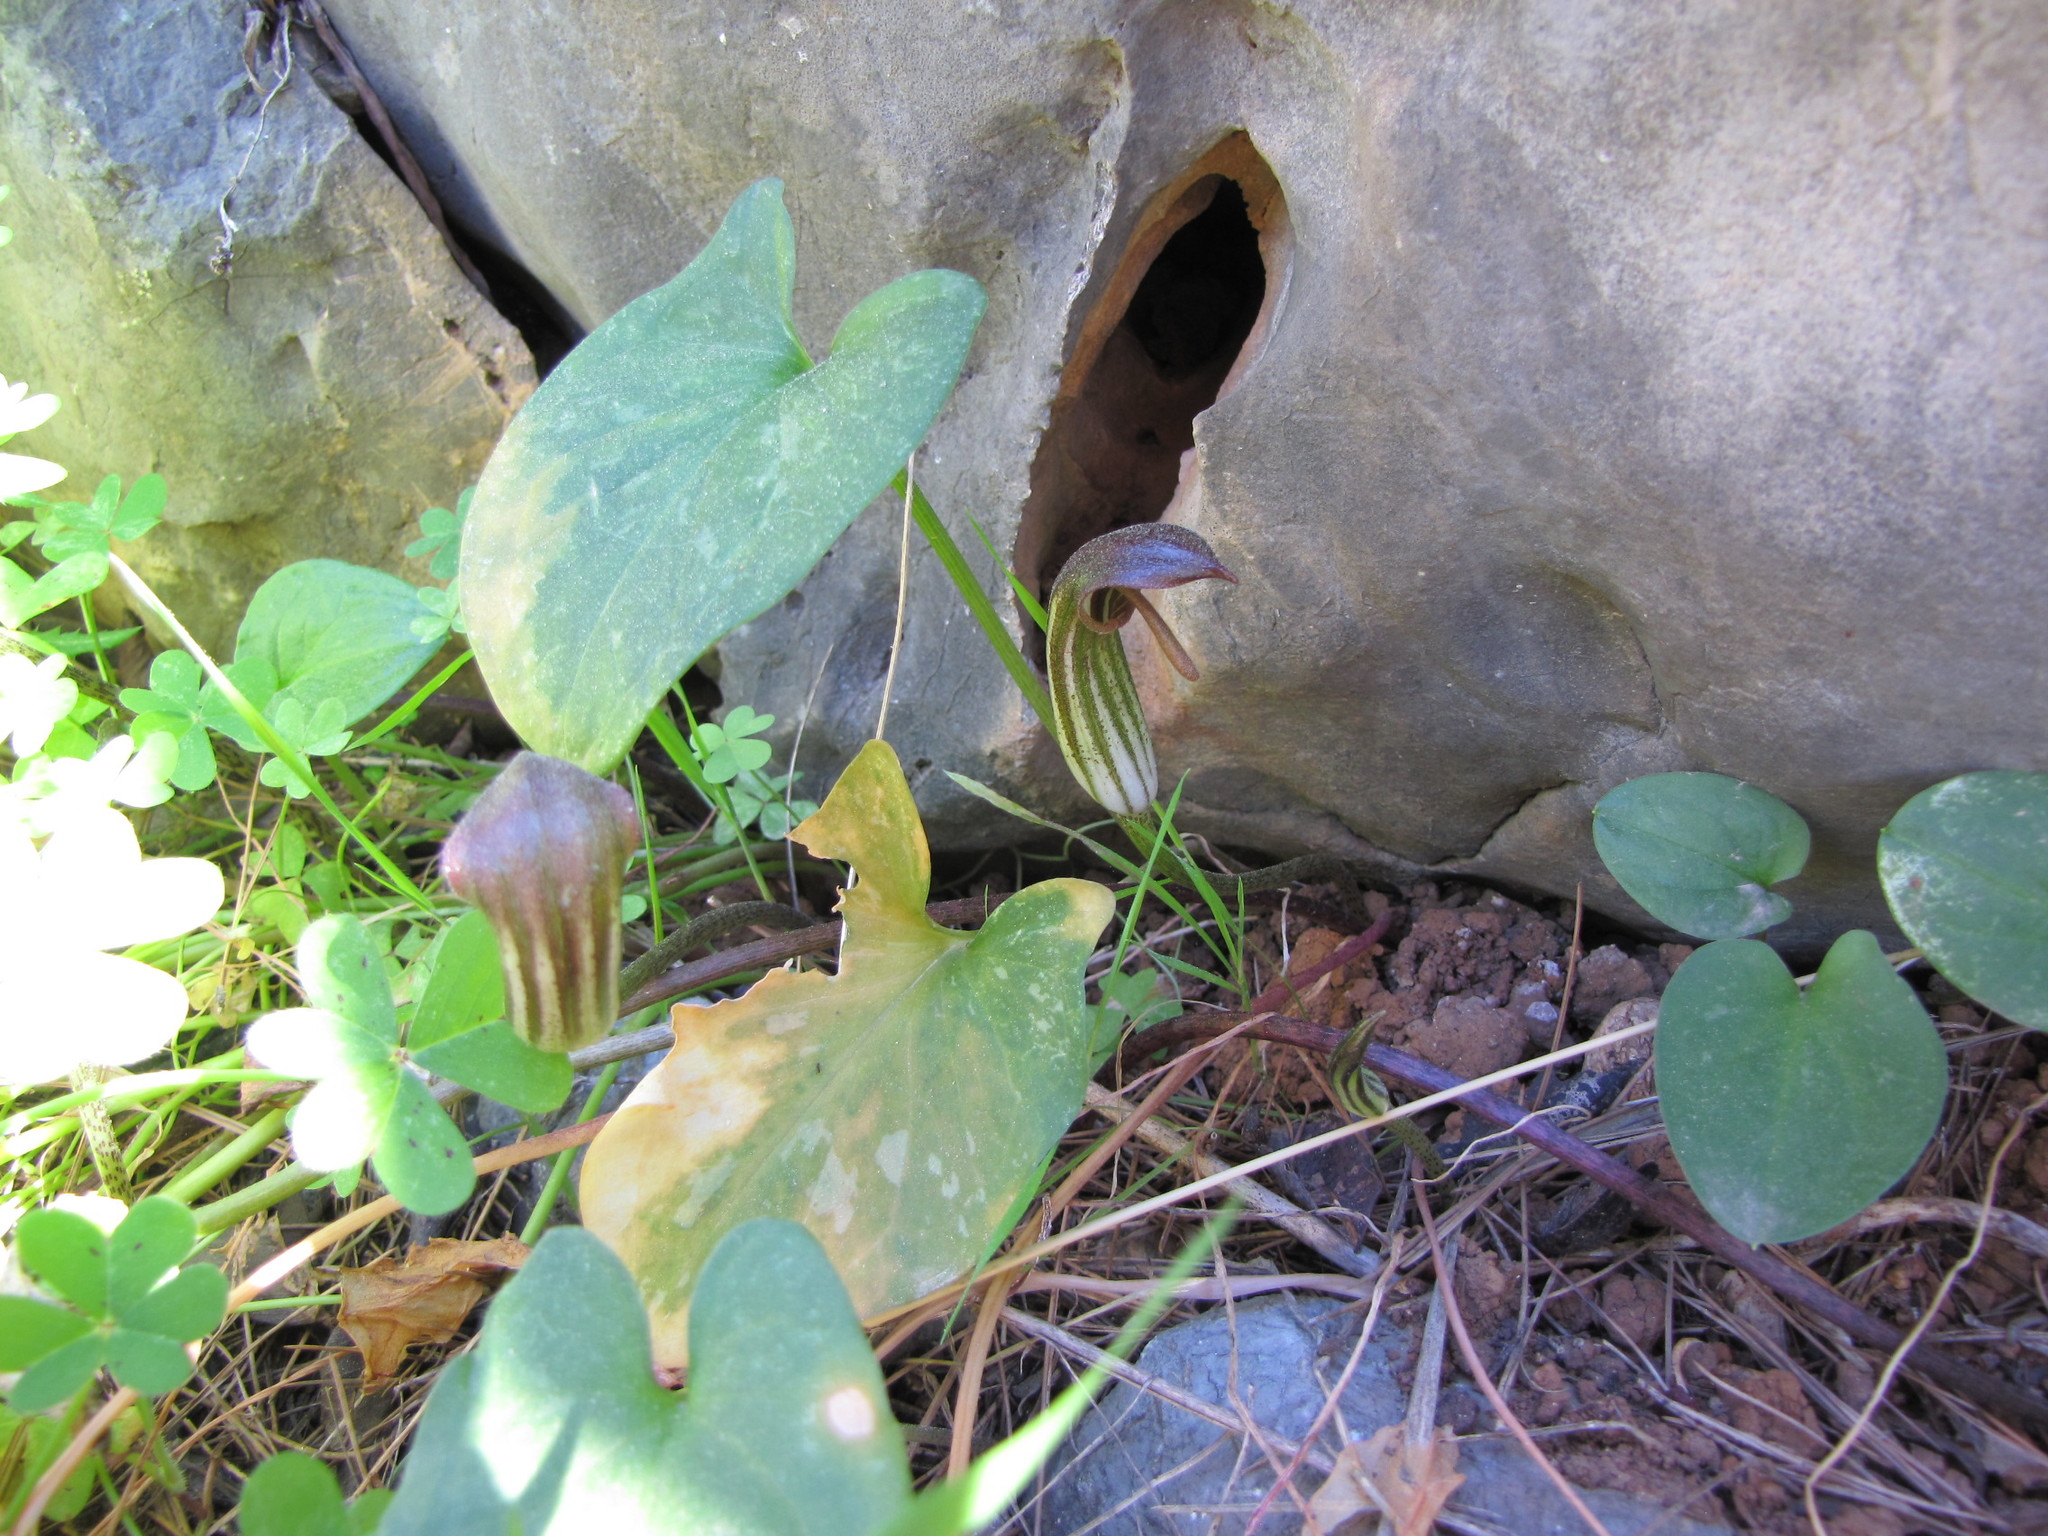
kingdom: Plantae
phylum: Tracheophyta
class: Liliopsida
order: Alismatales
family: Araceae
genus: Arisarum
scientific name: Arisarum vulgare
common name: Common arisarum
